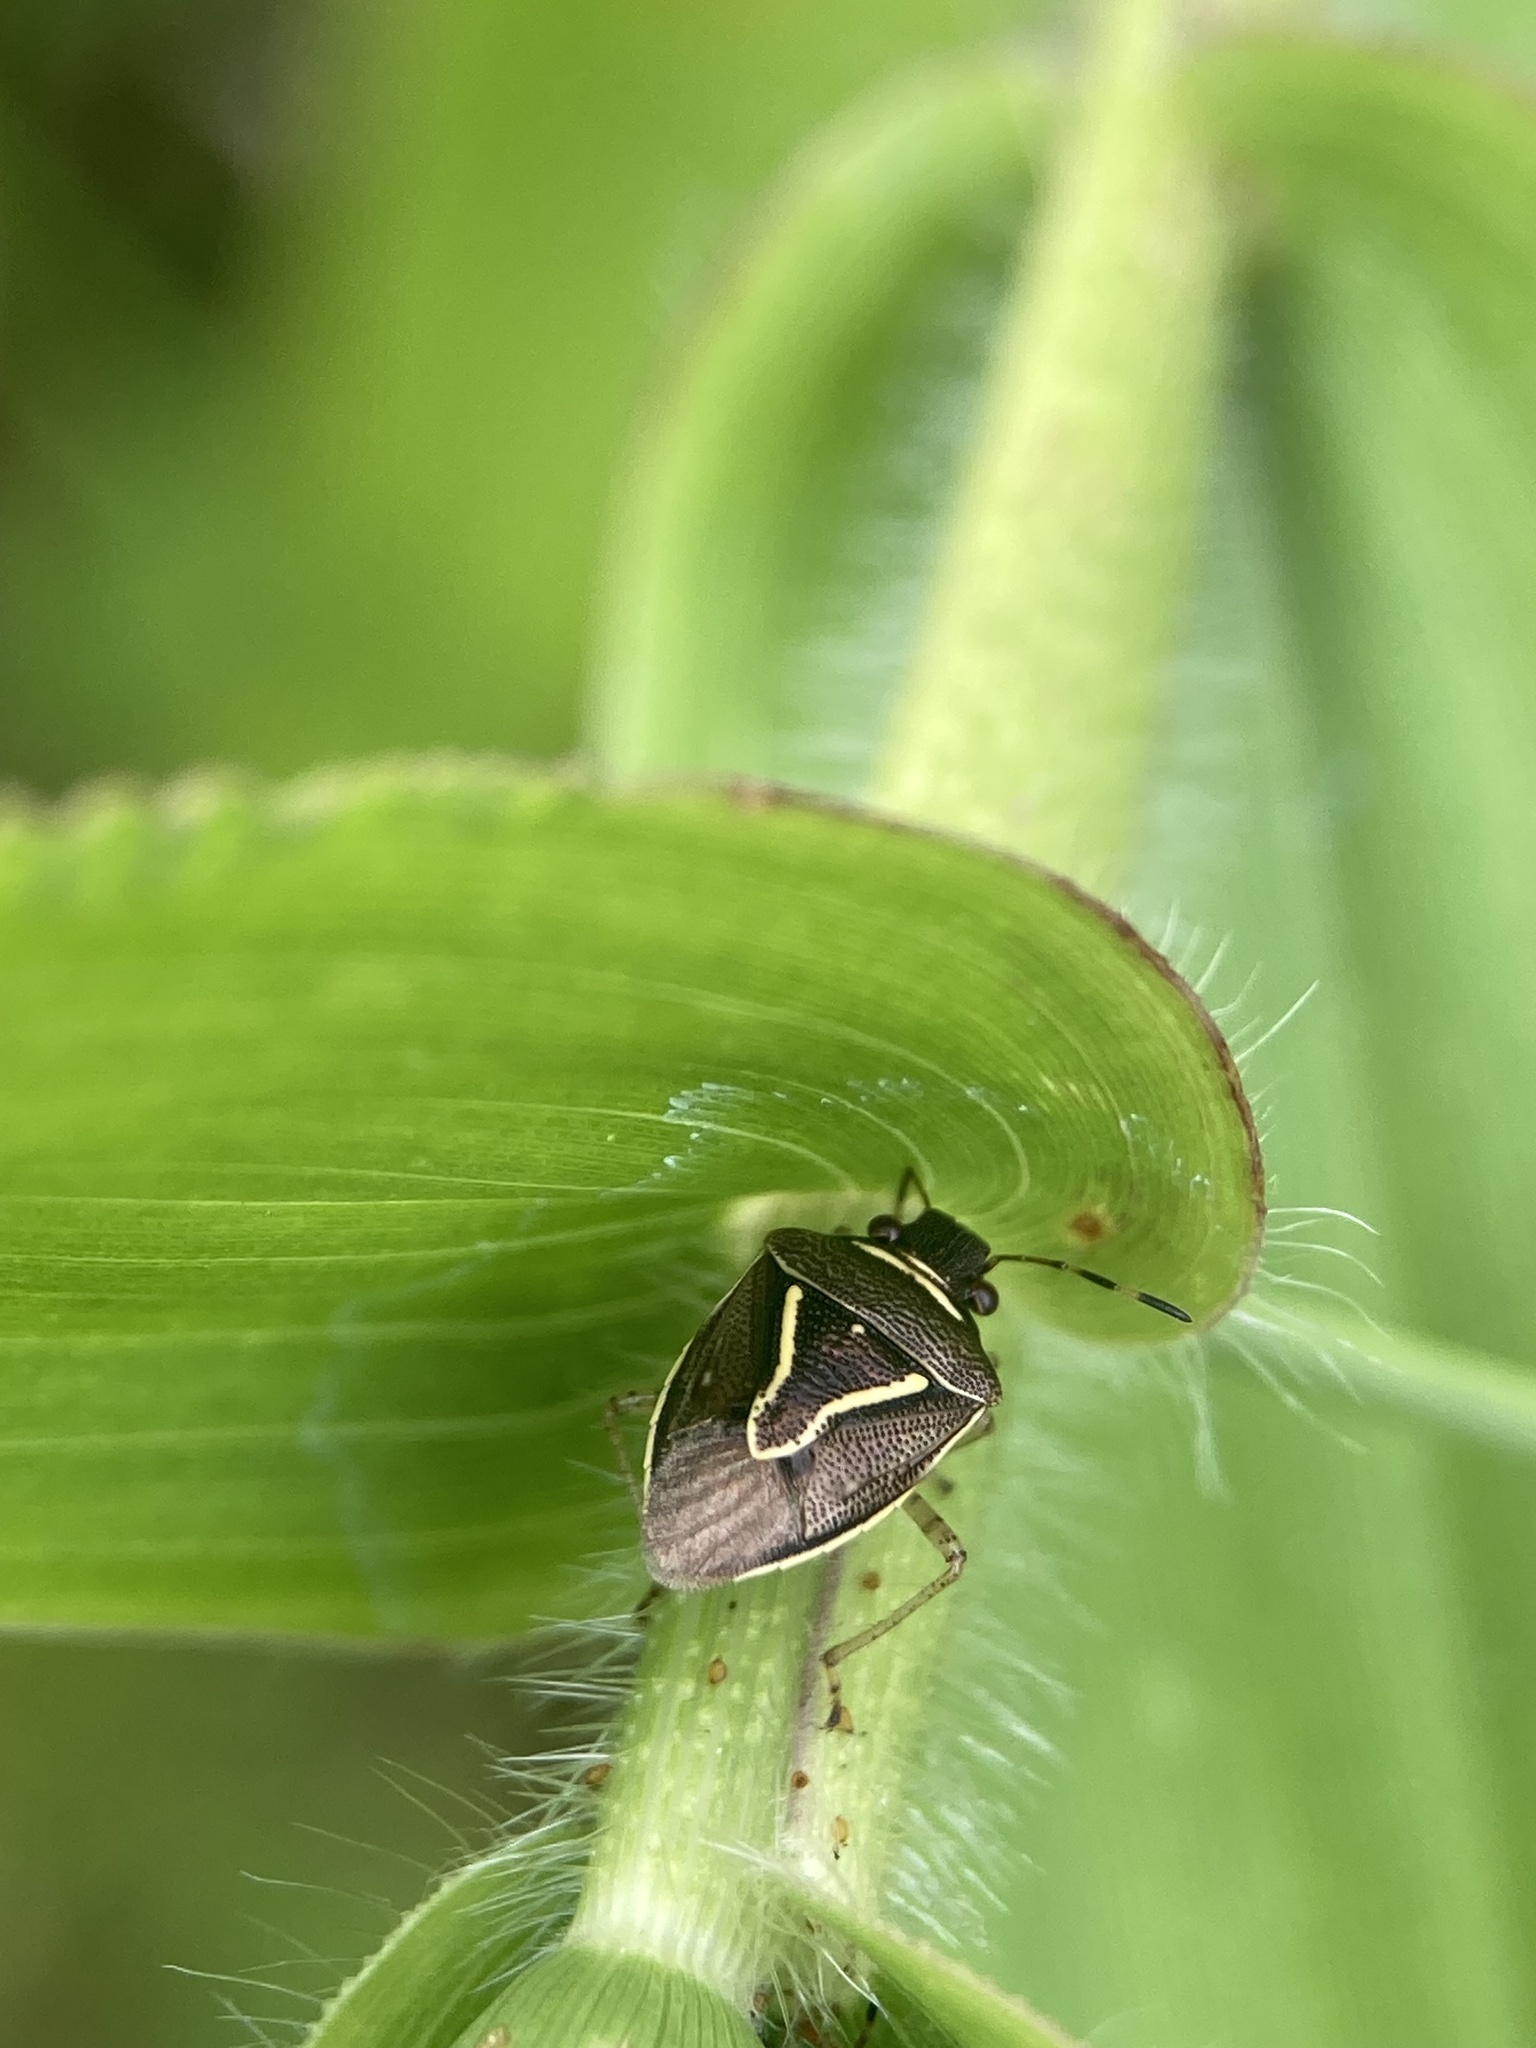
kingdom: Animalia
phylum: Arthropoda
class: Insecta
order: Hemiptera
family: Pentatomidae
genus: Mormidea
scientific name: Mormidea lugens
